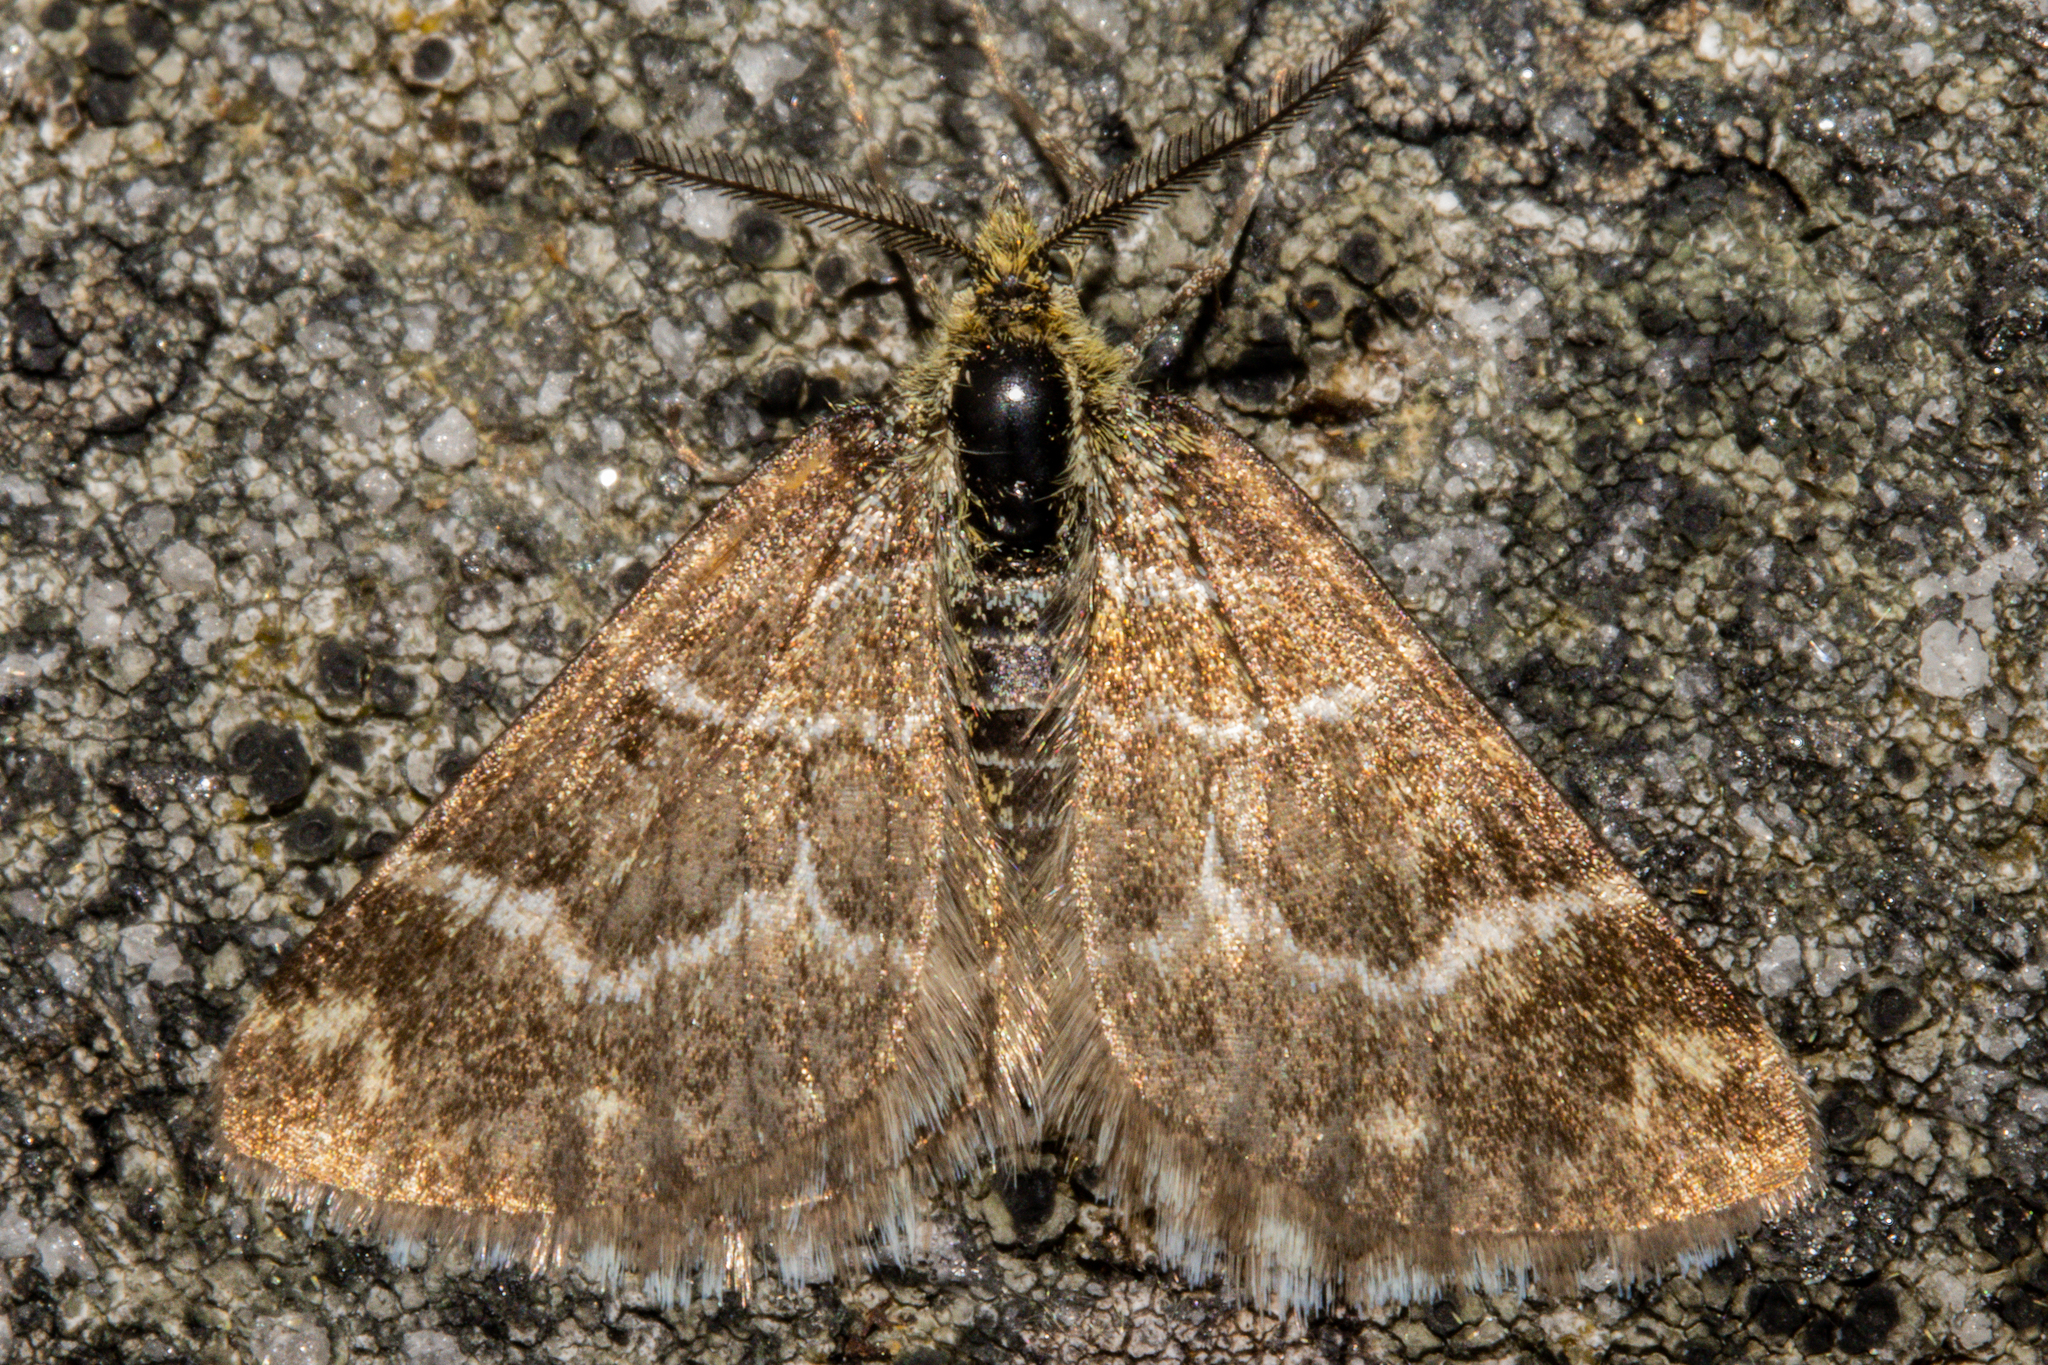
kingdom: Animalia
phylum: Arthropoda
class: Insecta
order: Lepidoptera
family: Geometridae
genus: Notoreas
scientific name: Notoreas paradelpha
